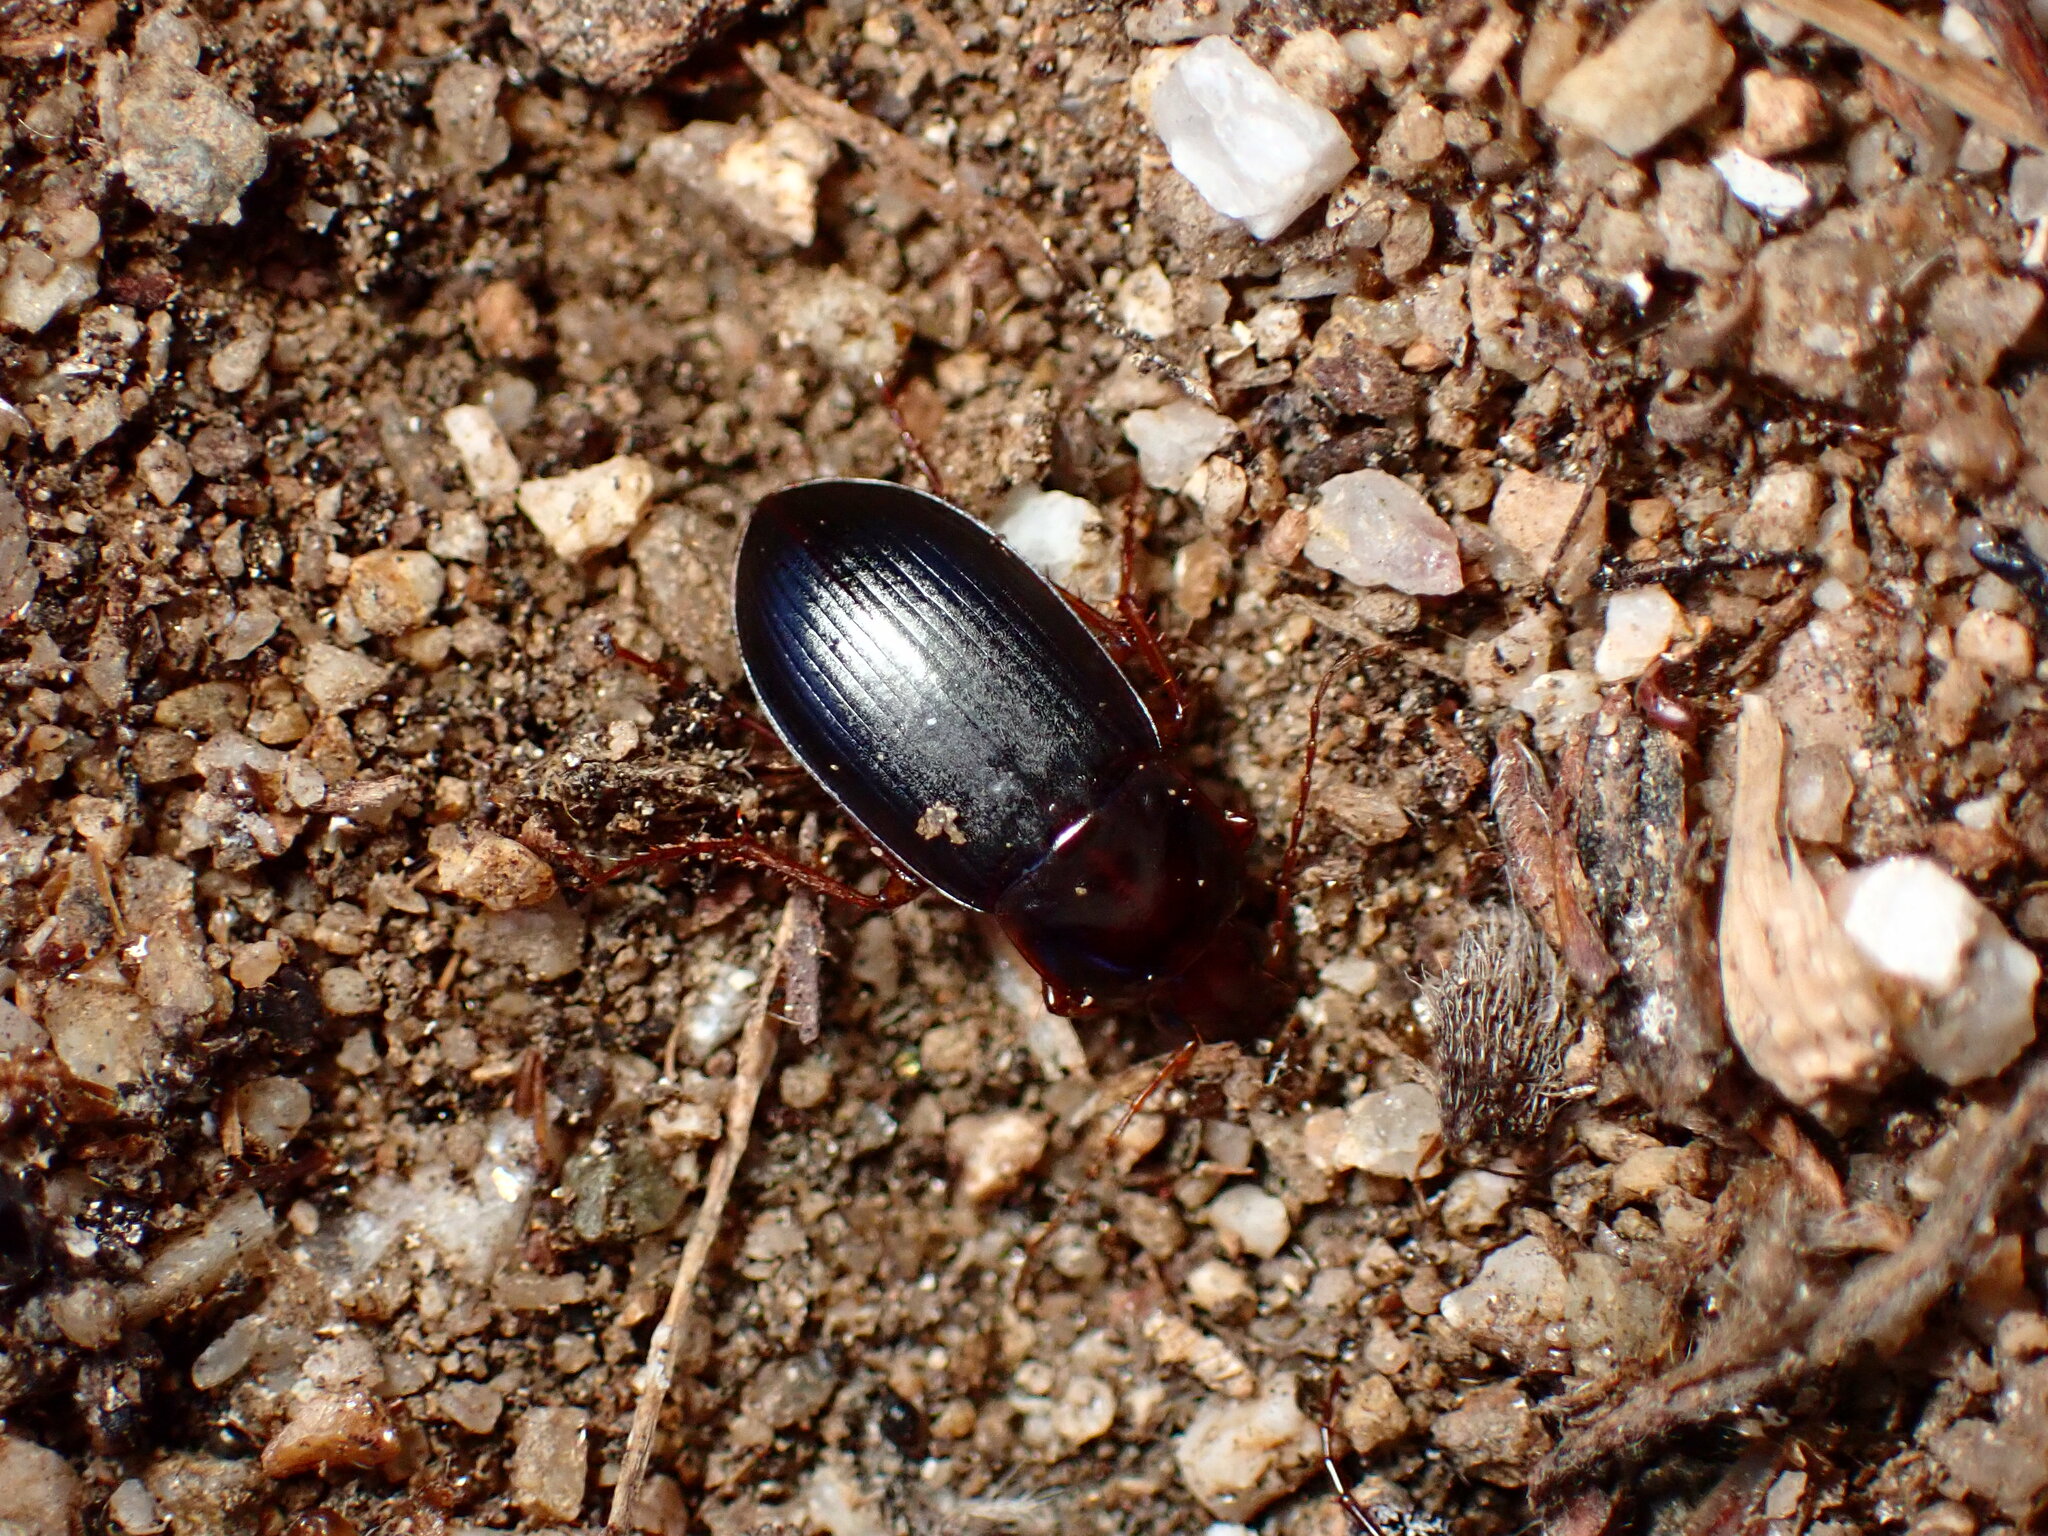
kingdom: Animalia
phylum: Arthropoda
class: Insecta
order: Coleoptera
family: Carabidae
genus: Calathus
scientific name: Calathus ruficollis
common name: Red-collared harp ground beetle
